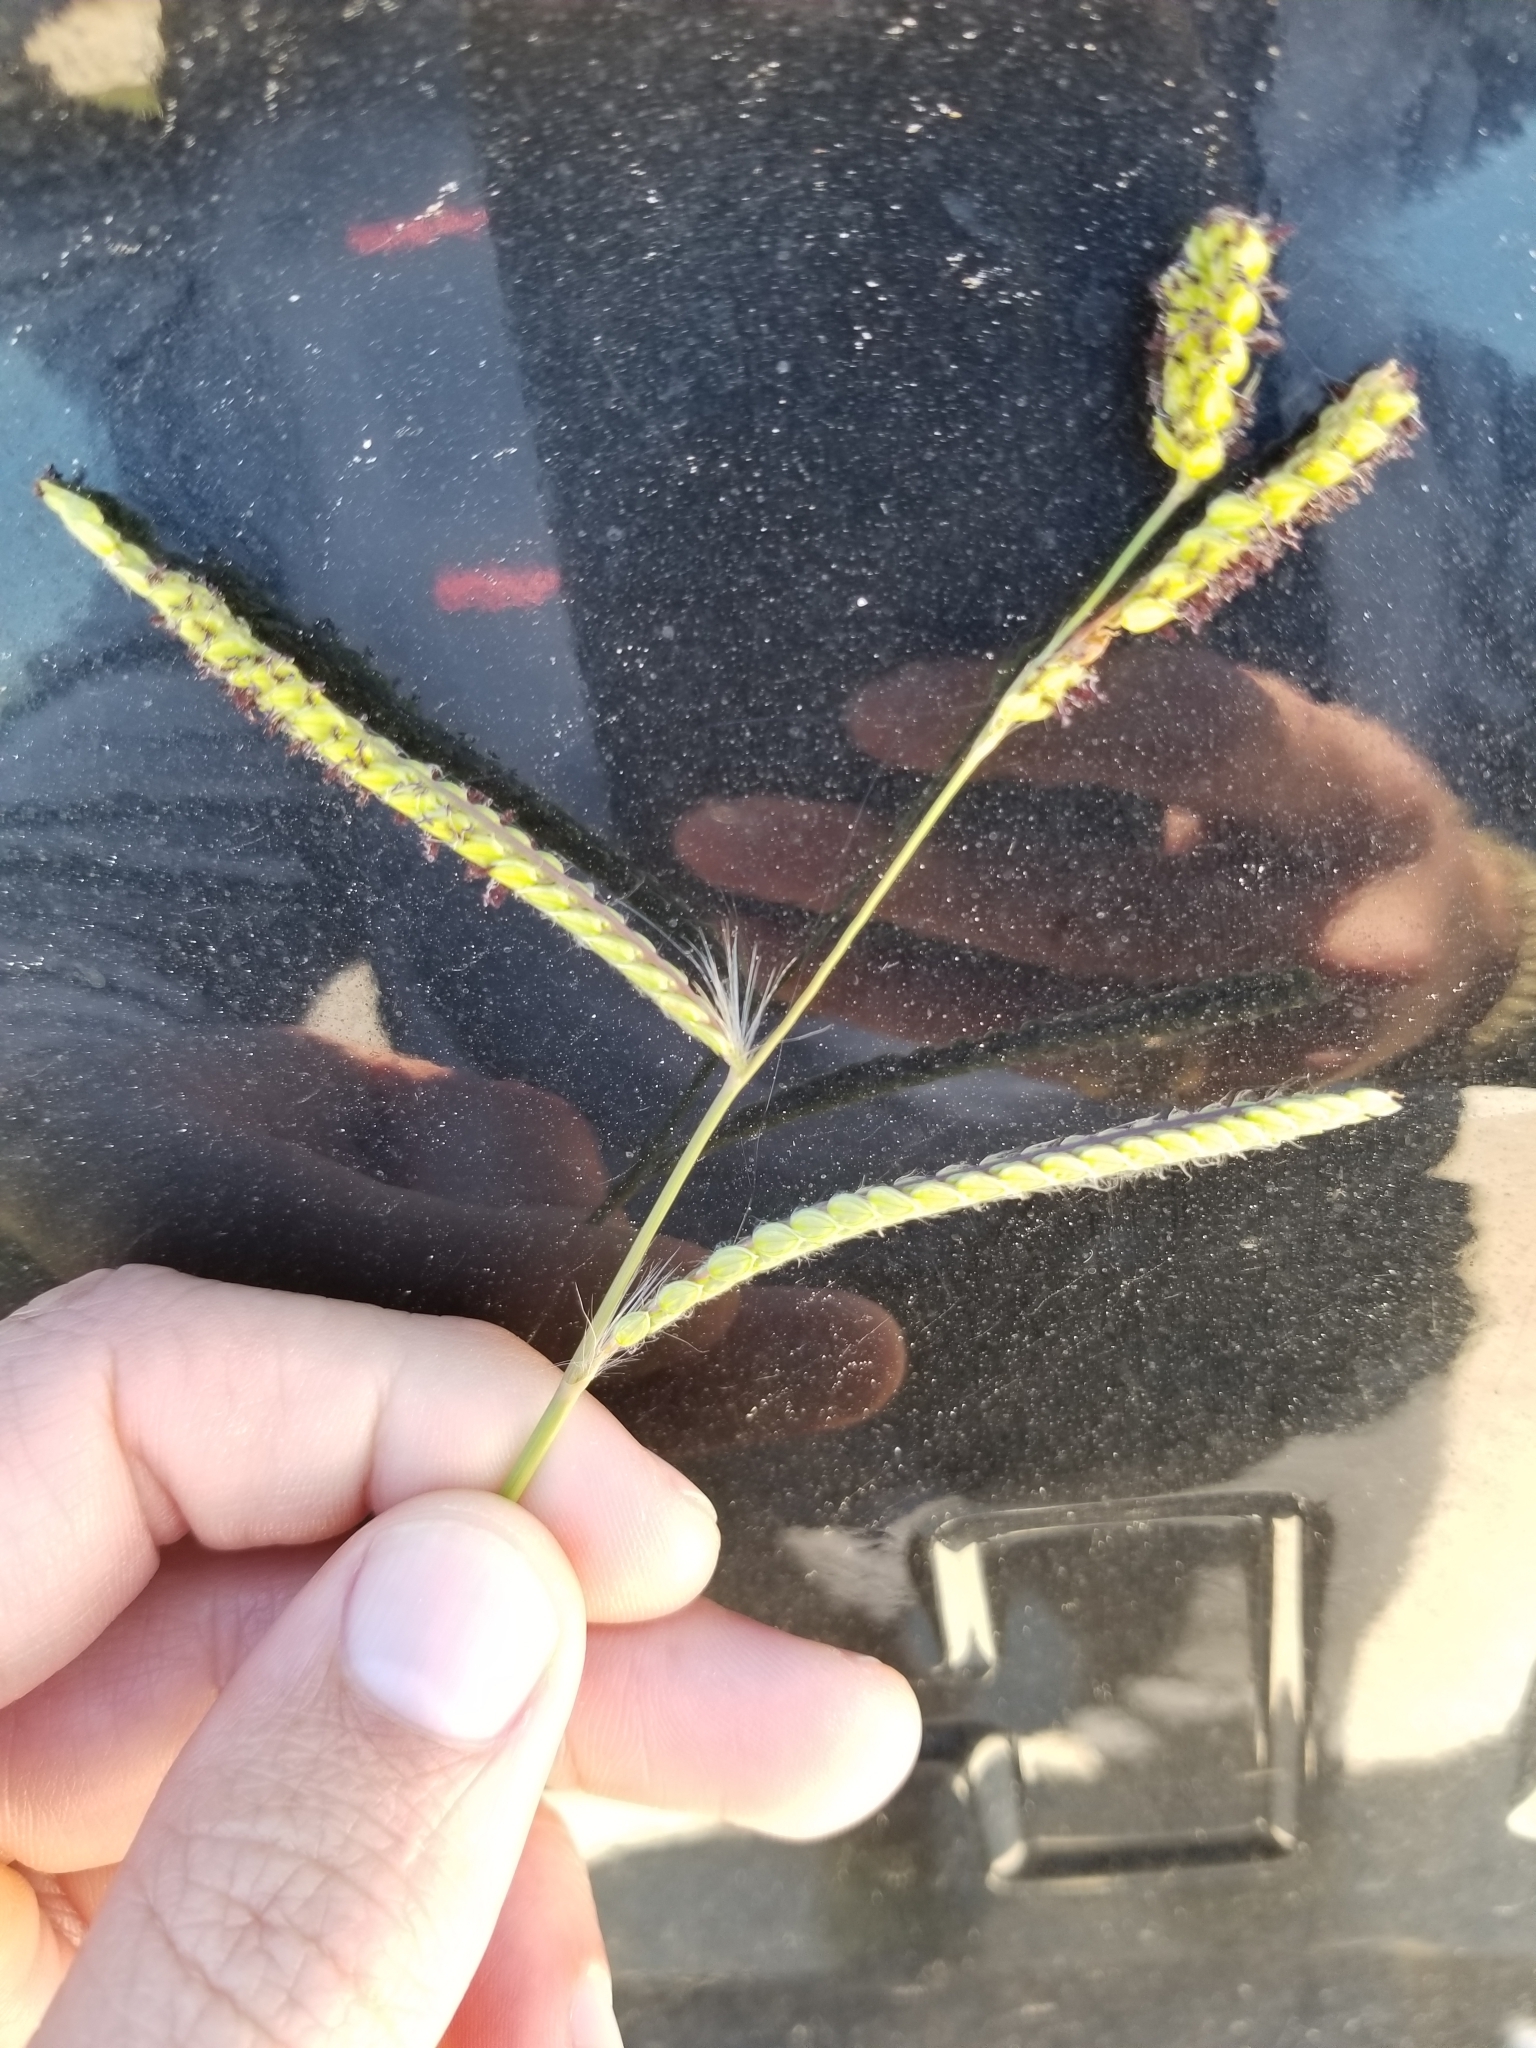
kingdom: Plantae
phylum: Tracheophyta
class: Liliopsida
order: Poales
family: Poaceae
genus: Paspalum
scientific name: Paspalum dilatatum
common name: Dallisgrass
